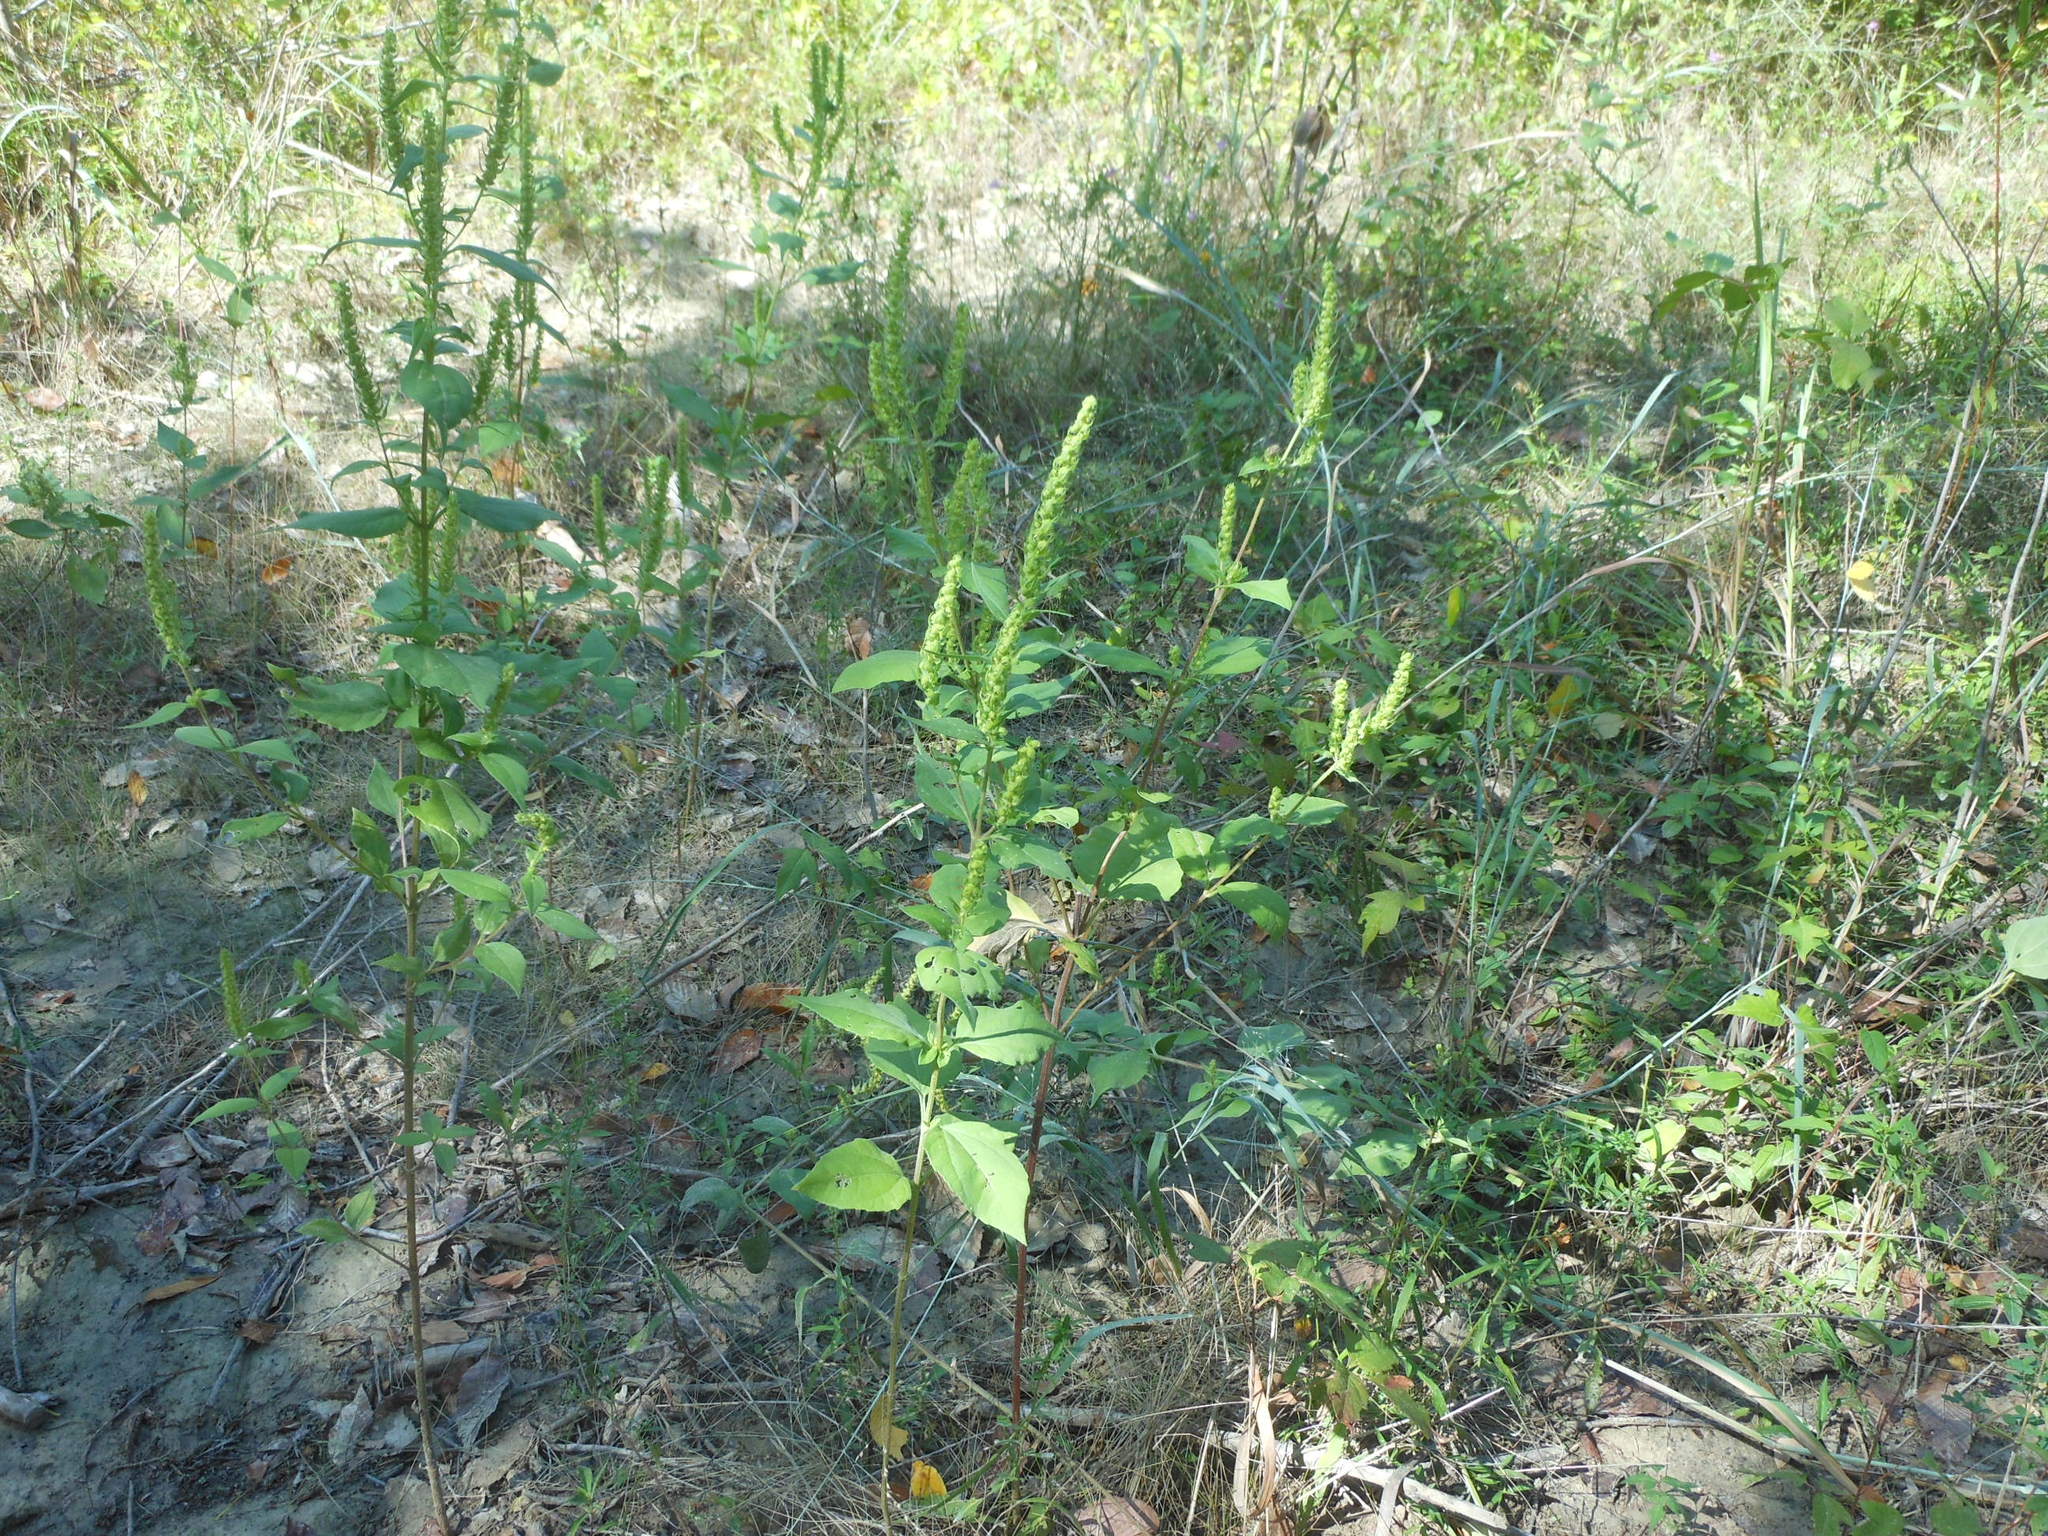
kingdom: Plantae
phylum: Tracheophyta
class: Magnoliopsida
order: Asterales
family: Asteraceae
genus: Iva
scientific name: Iva annua
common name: Marsh-elder
